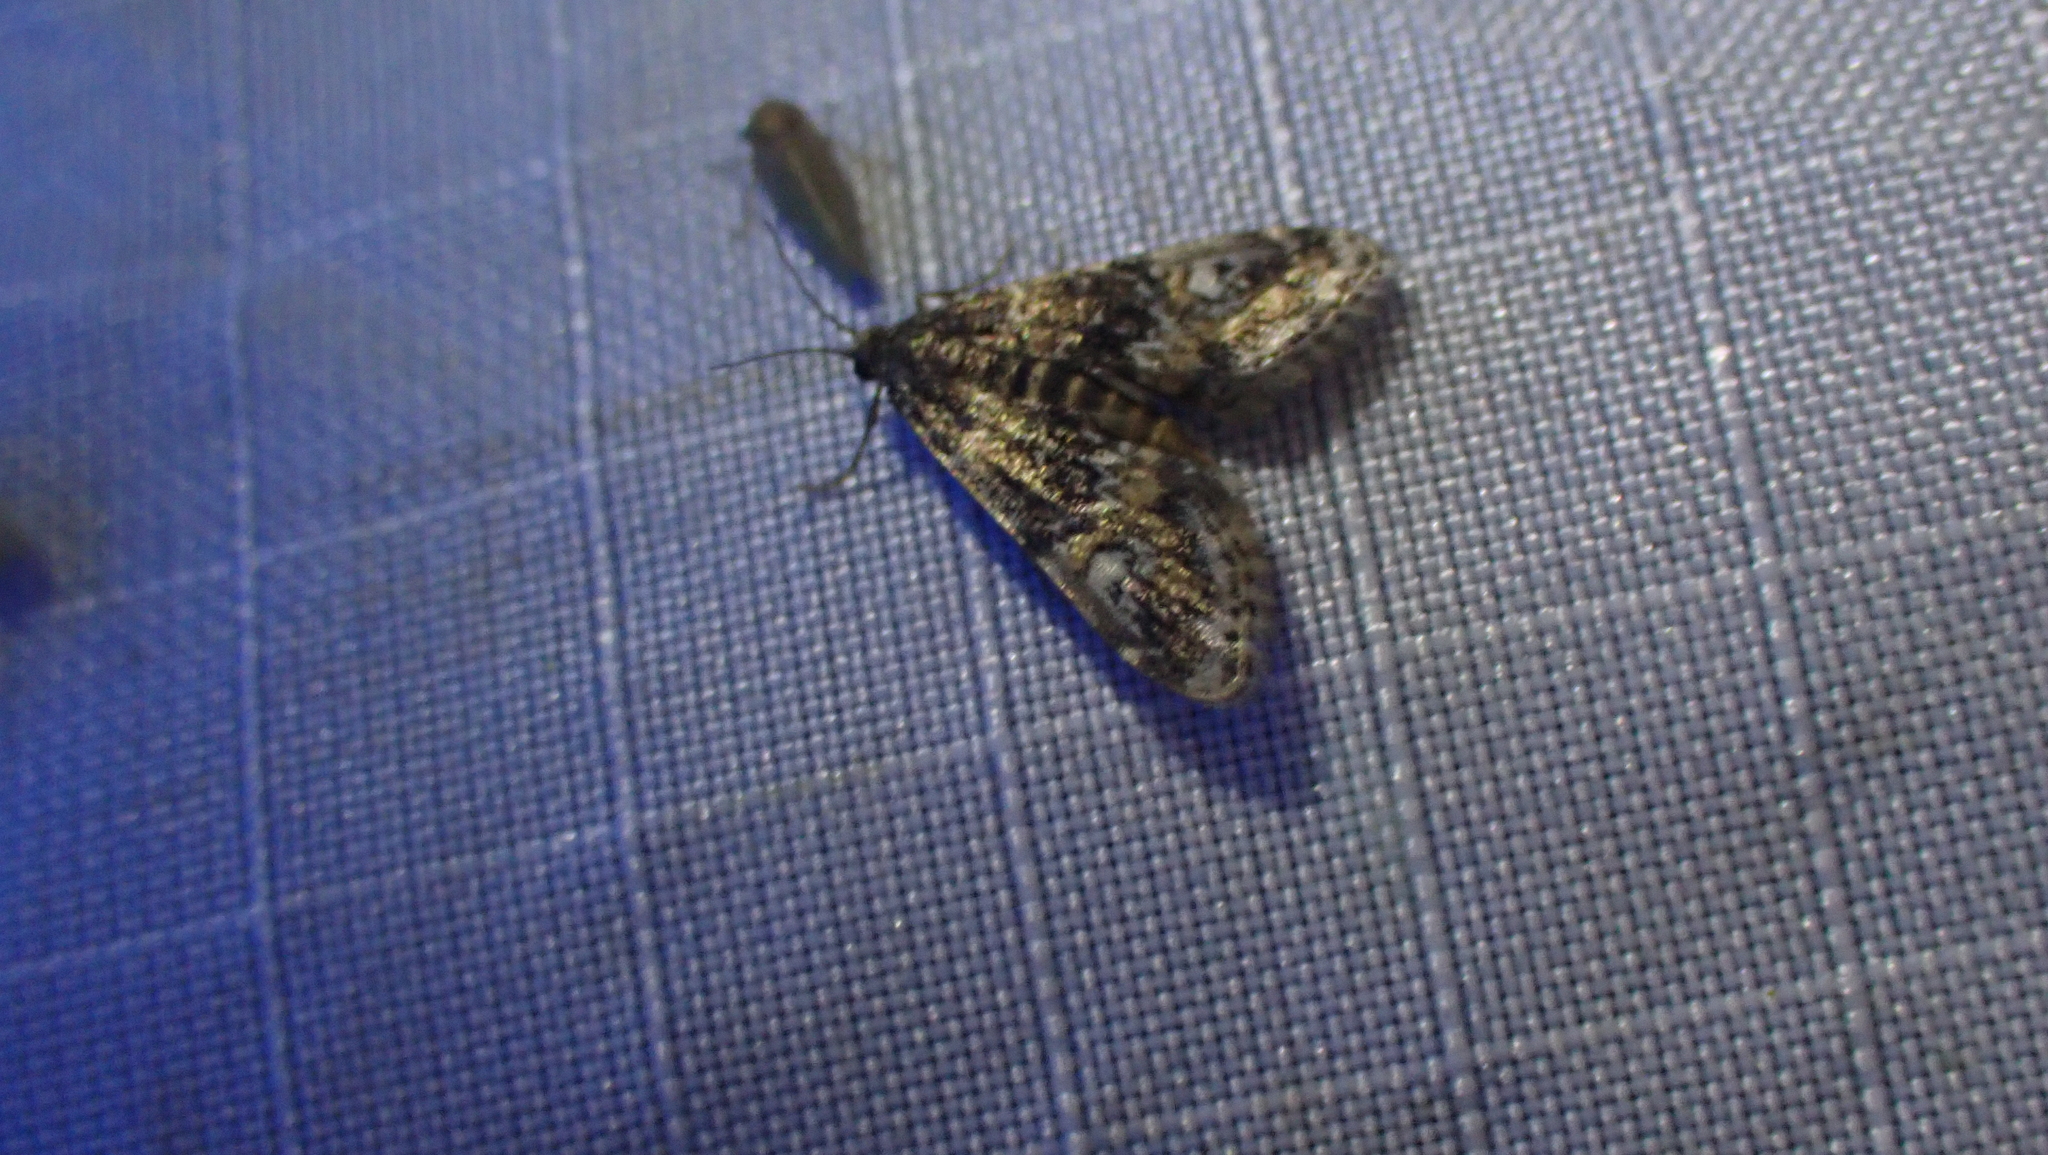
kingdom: Animalia
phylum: Arthropoda
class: Insecta
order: Lepidoptera
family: Crambidae
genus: Elophila
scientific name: Elophila obliteralis
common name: Waterlily leafcutter moth
